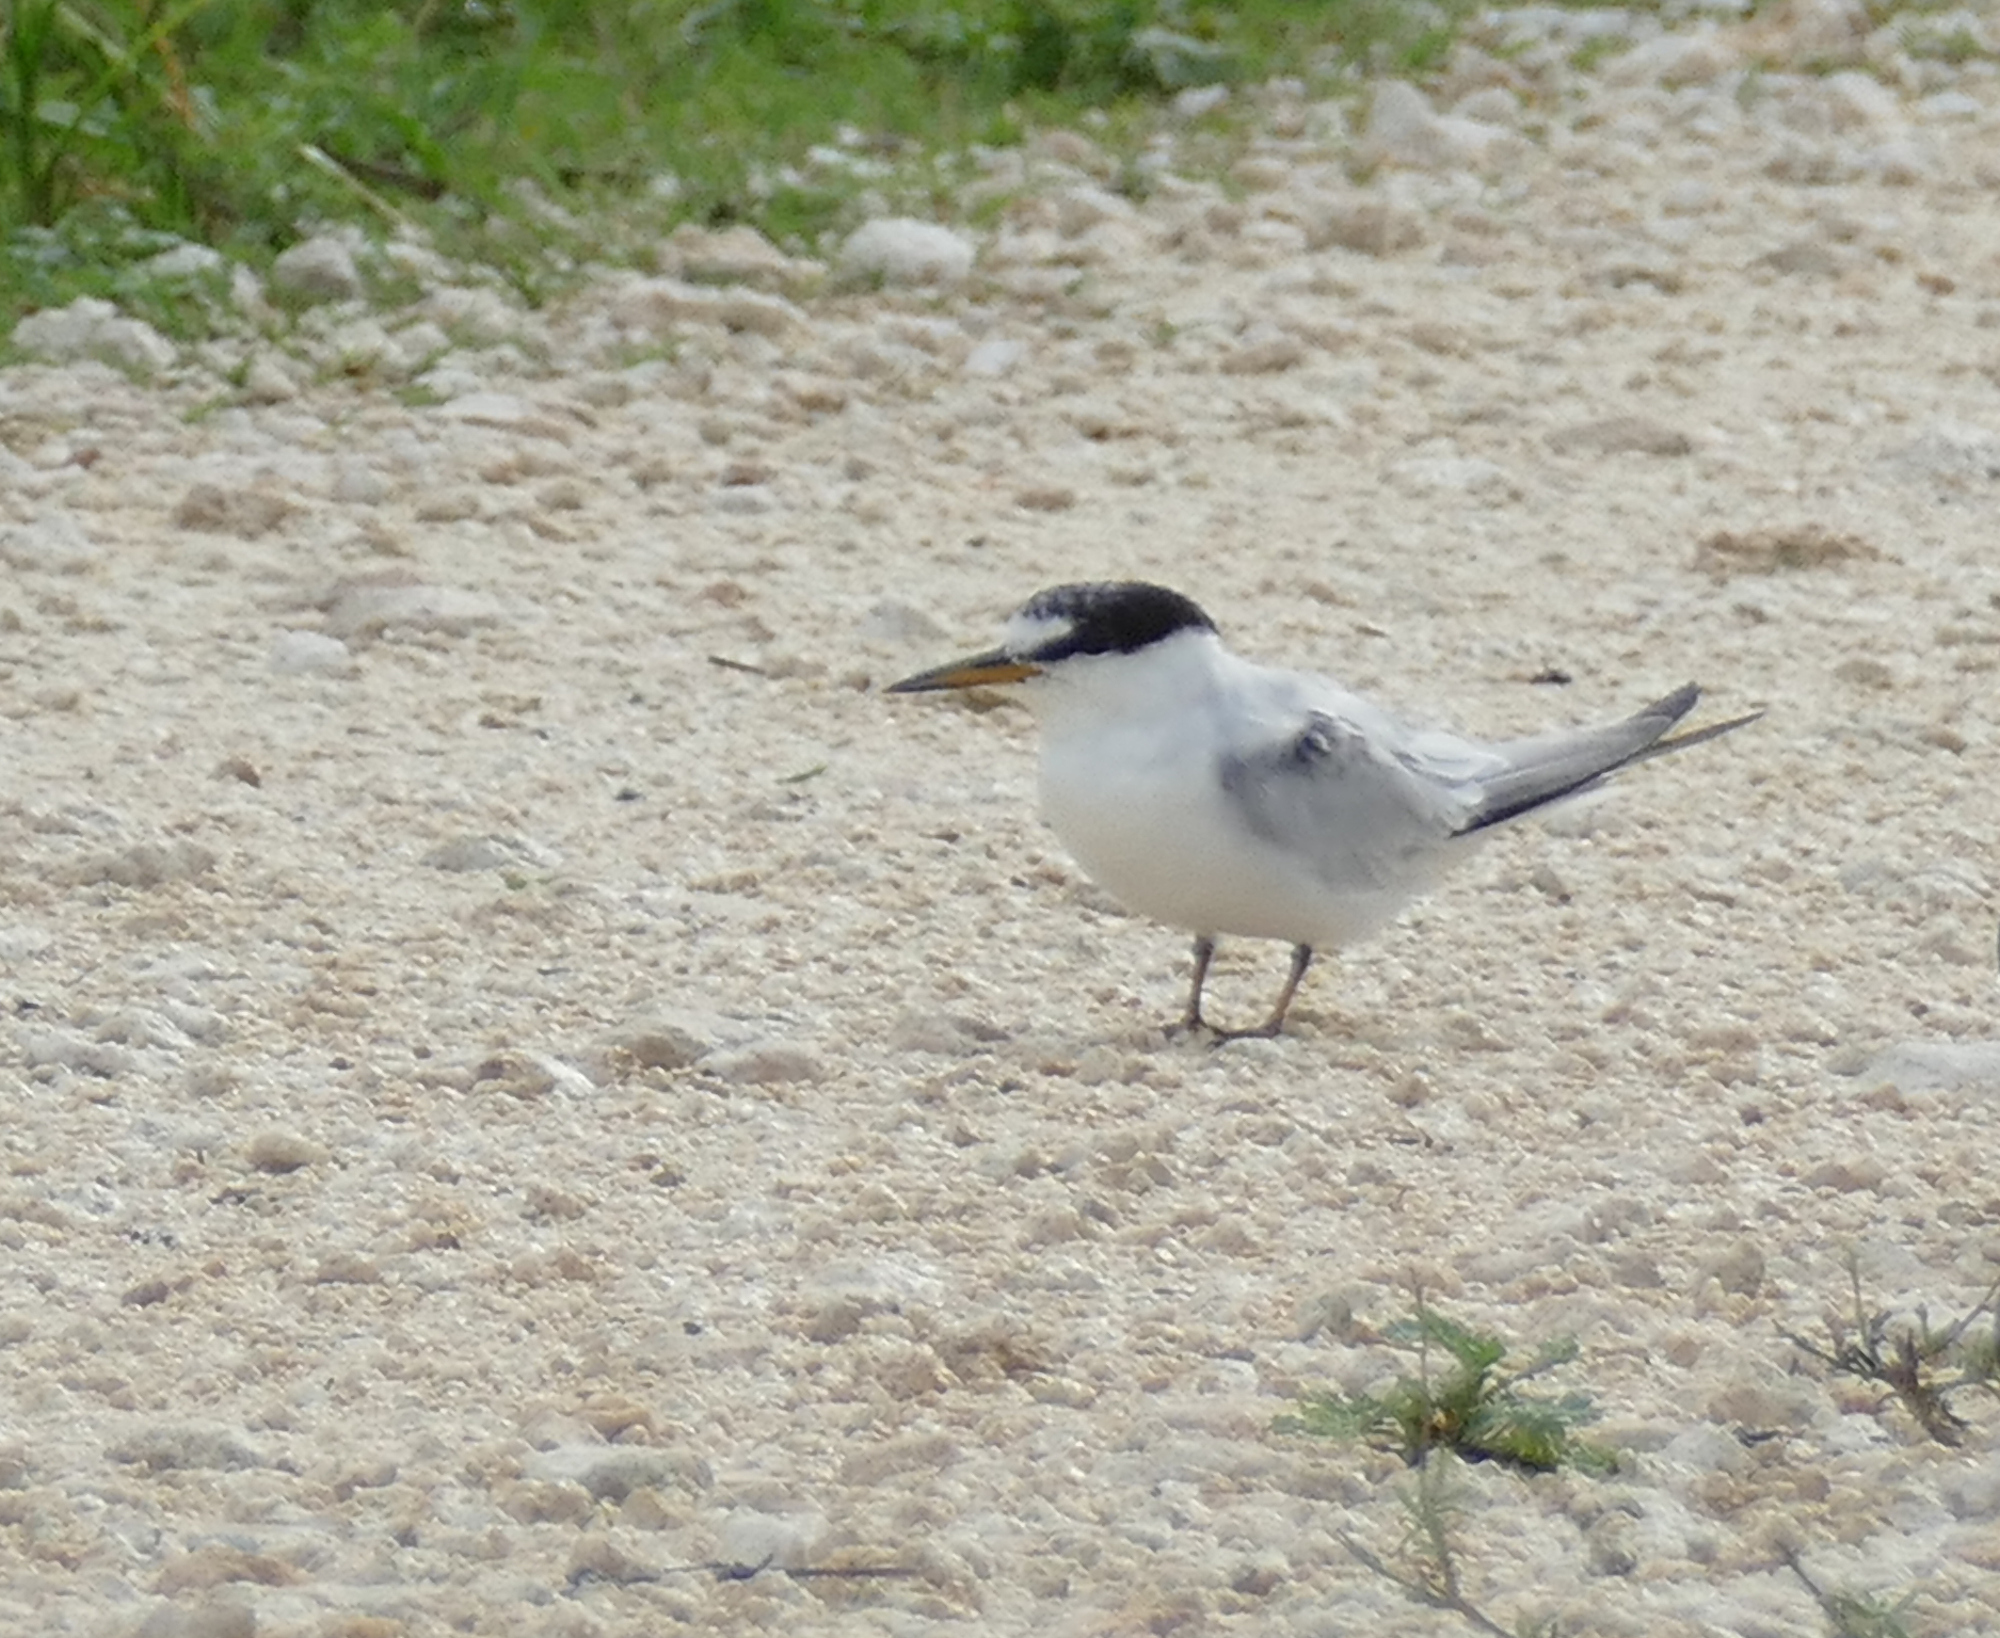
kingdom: Animalia
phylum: Chordata
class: Aves
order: Charadriiformes
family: Laridae
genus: Sternula
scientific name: Sternula antillarum
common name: Least tern
